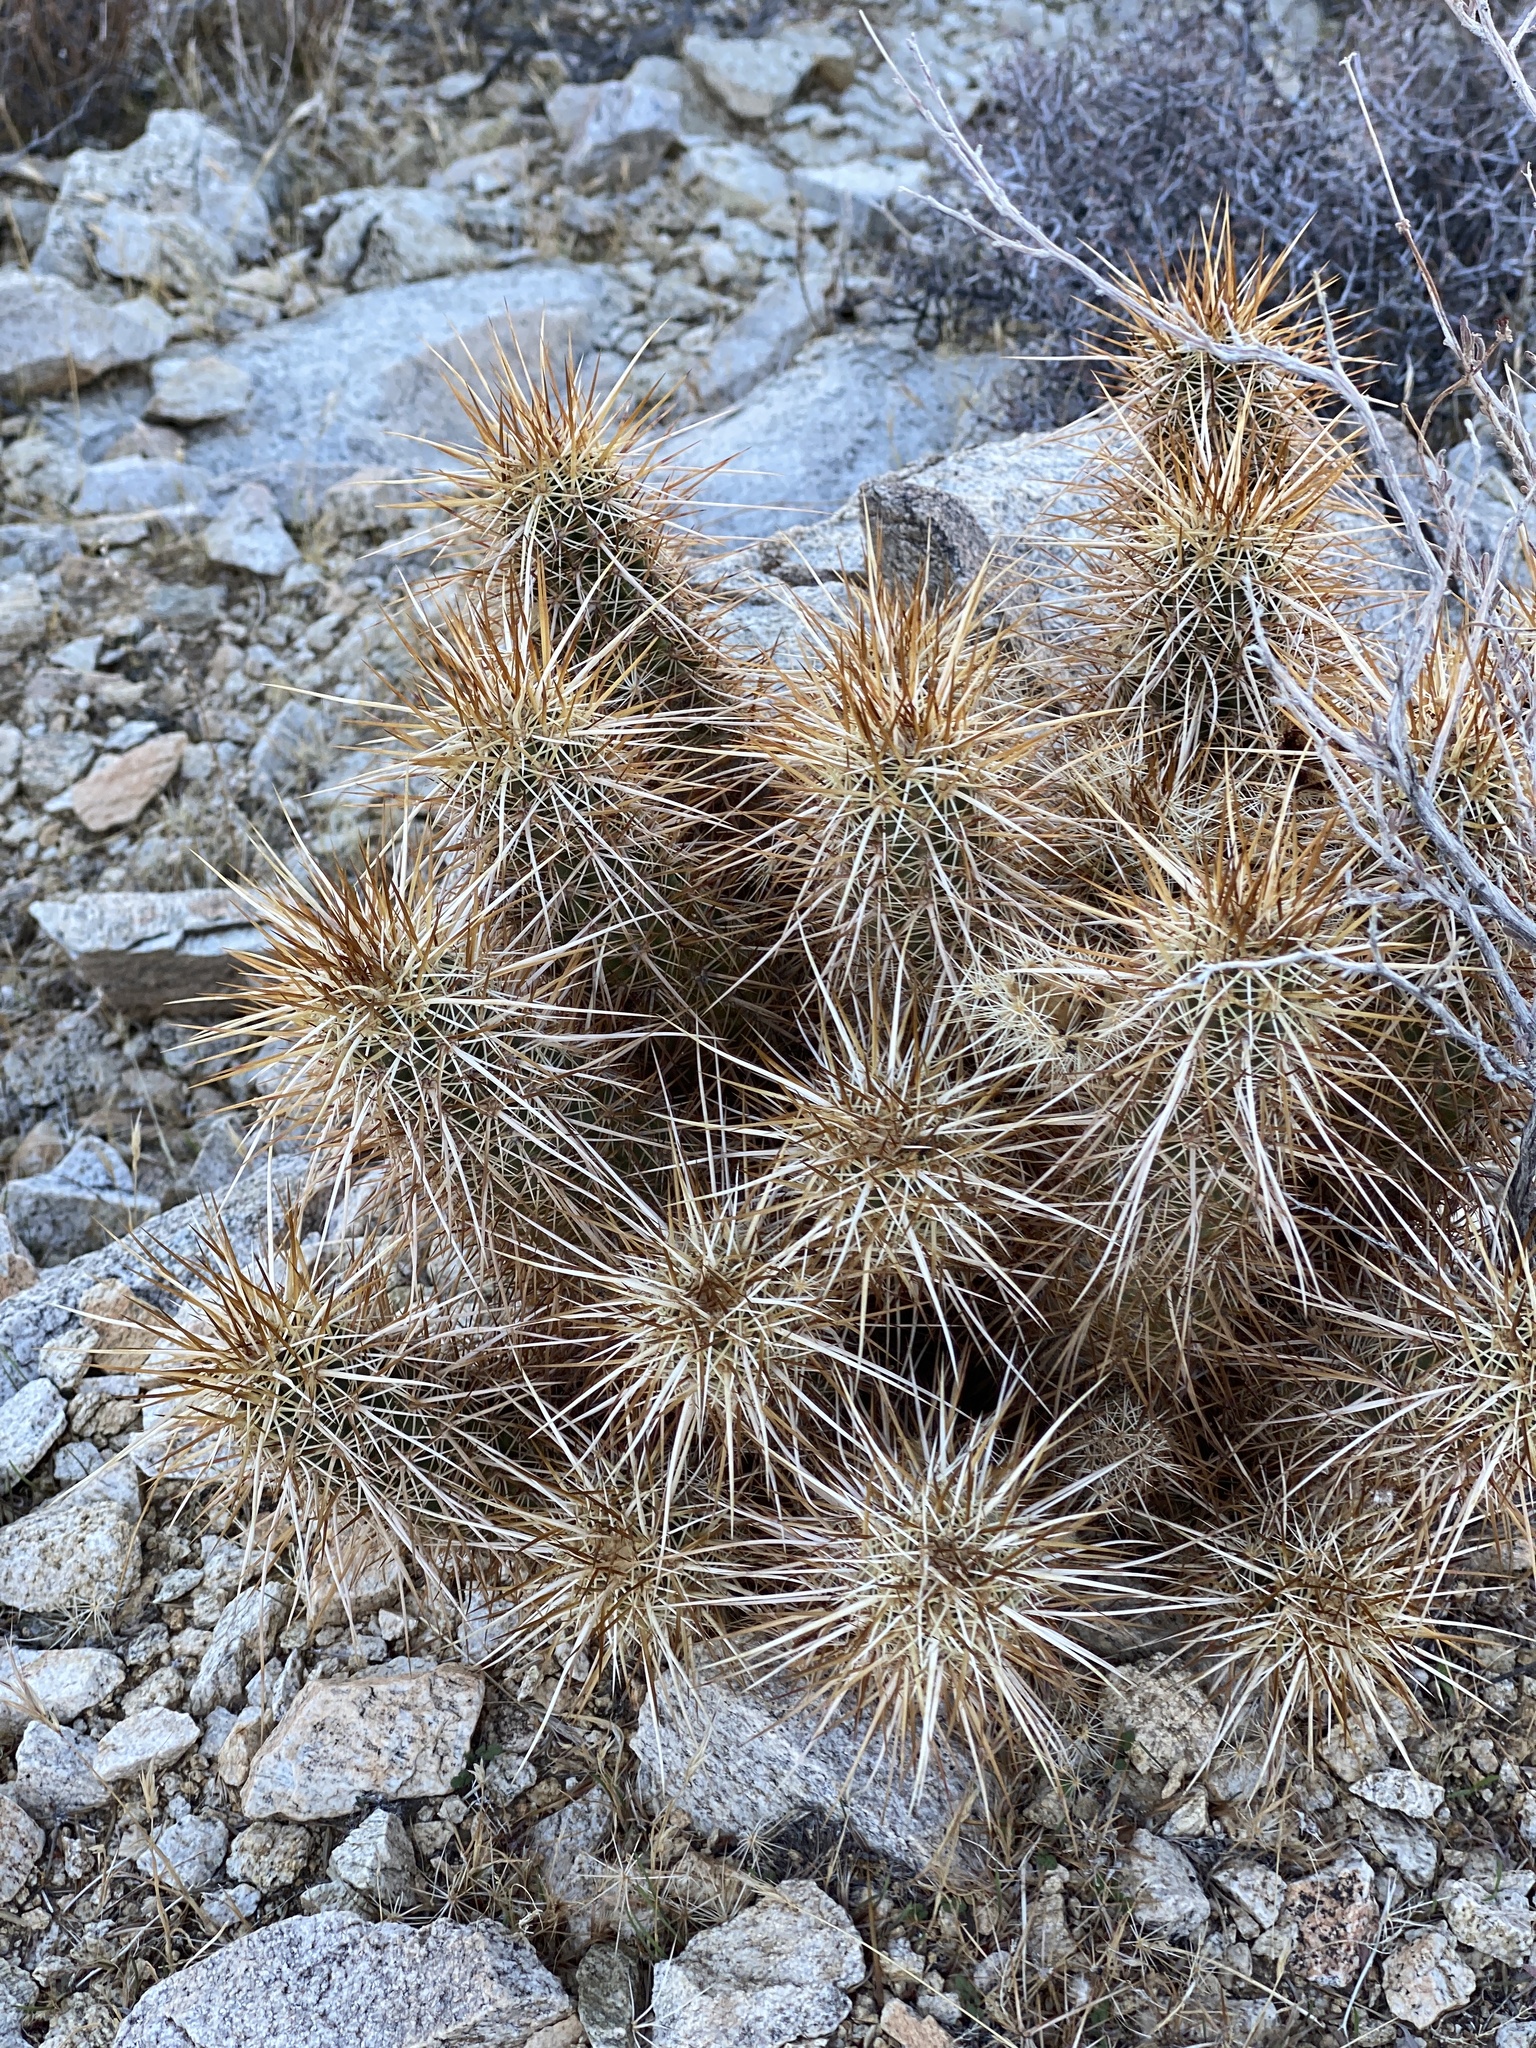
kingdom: Plantae
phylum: Tracheophyta
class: Magnoliopsida
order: Caryophyllales
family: Cactaceae
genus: Echinocereus
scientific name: Echinocereus engelmannii
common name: Engelmann's hedgehog cactus
